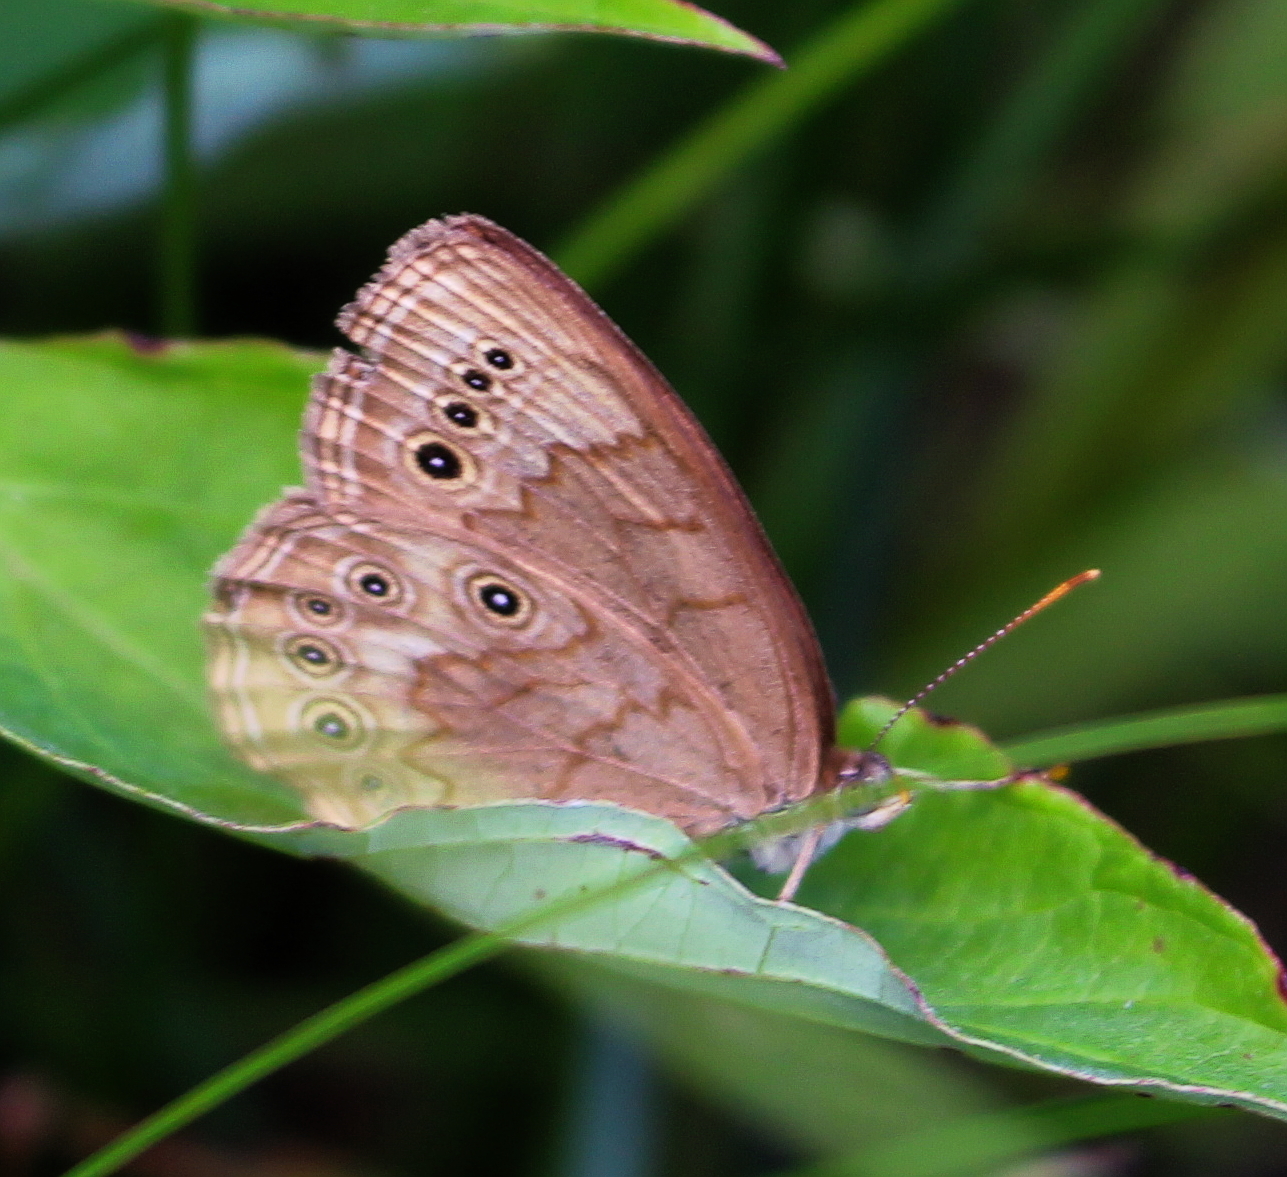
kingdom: Animalia
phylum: Arthropoda
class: Insecta
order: Lepidoptera
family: Nymphalidae
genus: Lethe
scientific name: Lethe eurydice
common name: Eyed brown
